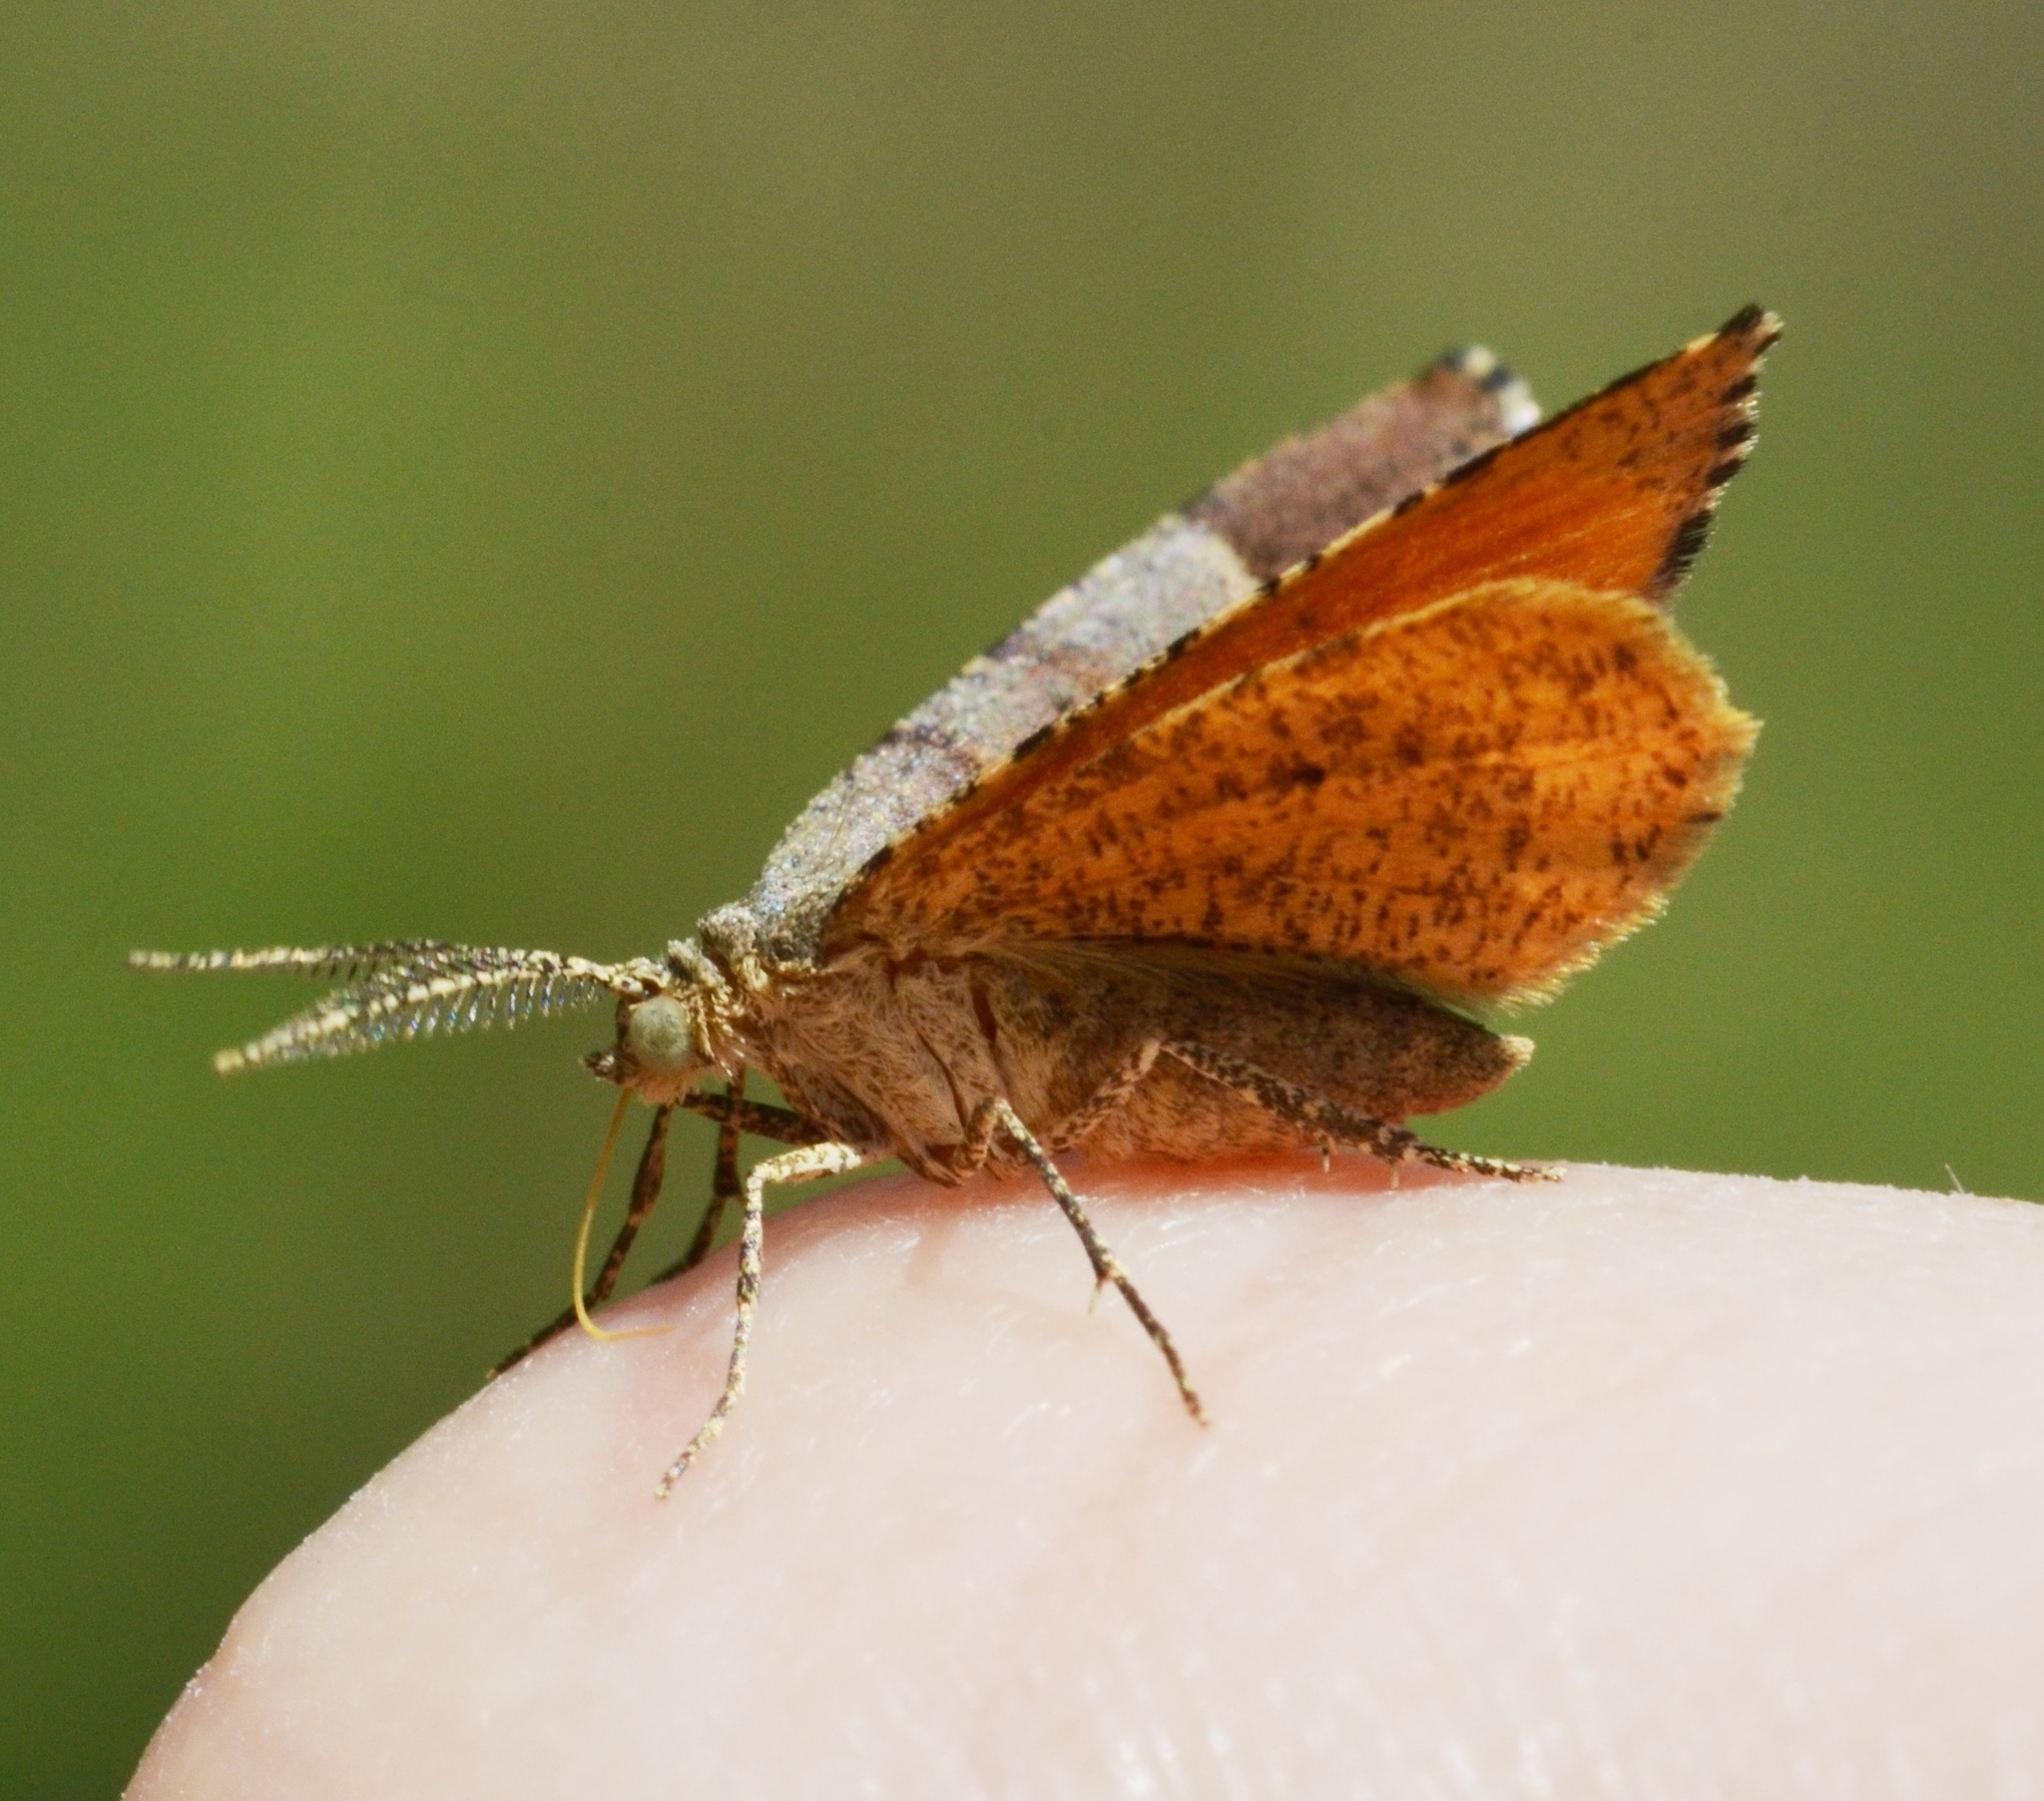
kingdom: Animalia
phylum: Arthropoda
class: Insecta
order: Lepidoptera
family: Geometridae
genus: Mellilla
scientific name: Mellilla xanthometata
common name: Orange wing moth
